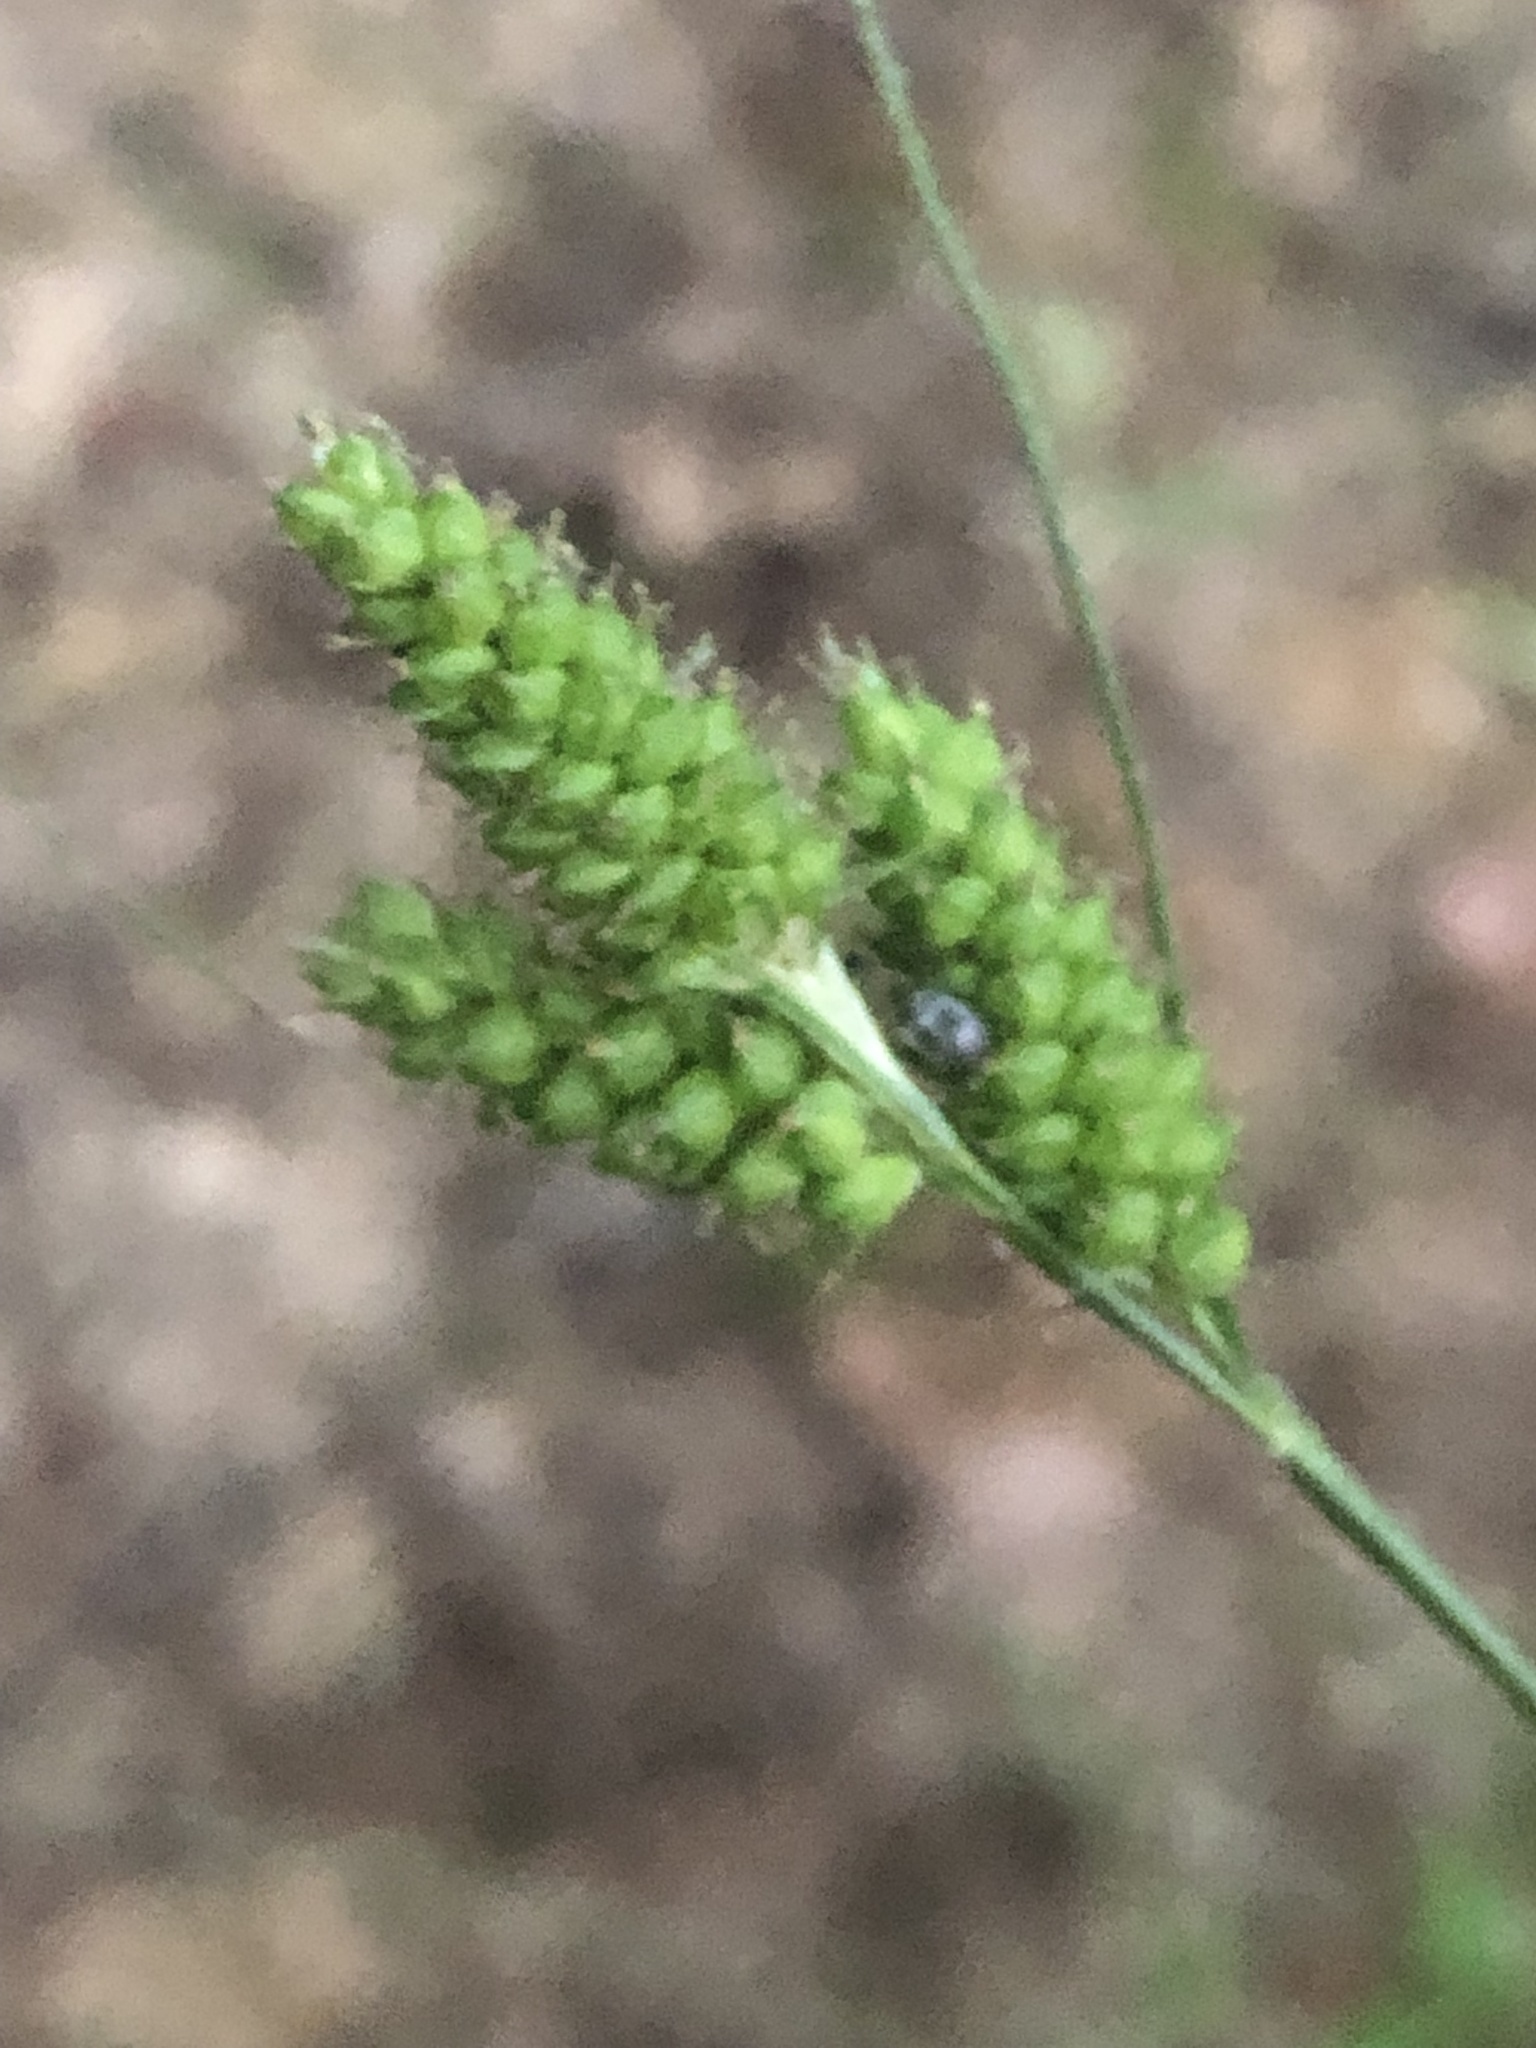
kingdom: Plantae
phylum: Tracheophyta
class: Liliopsida
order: Poales
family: Cyperaceae
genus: Carex
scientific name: Carex hirsutella
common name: Fuzzy wuzzy sedge
